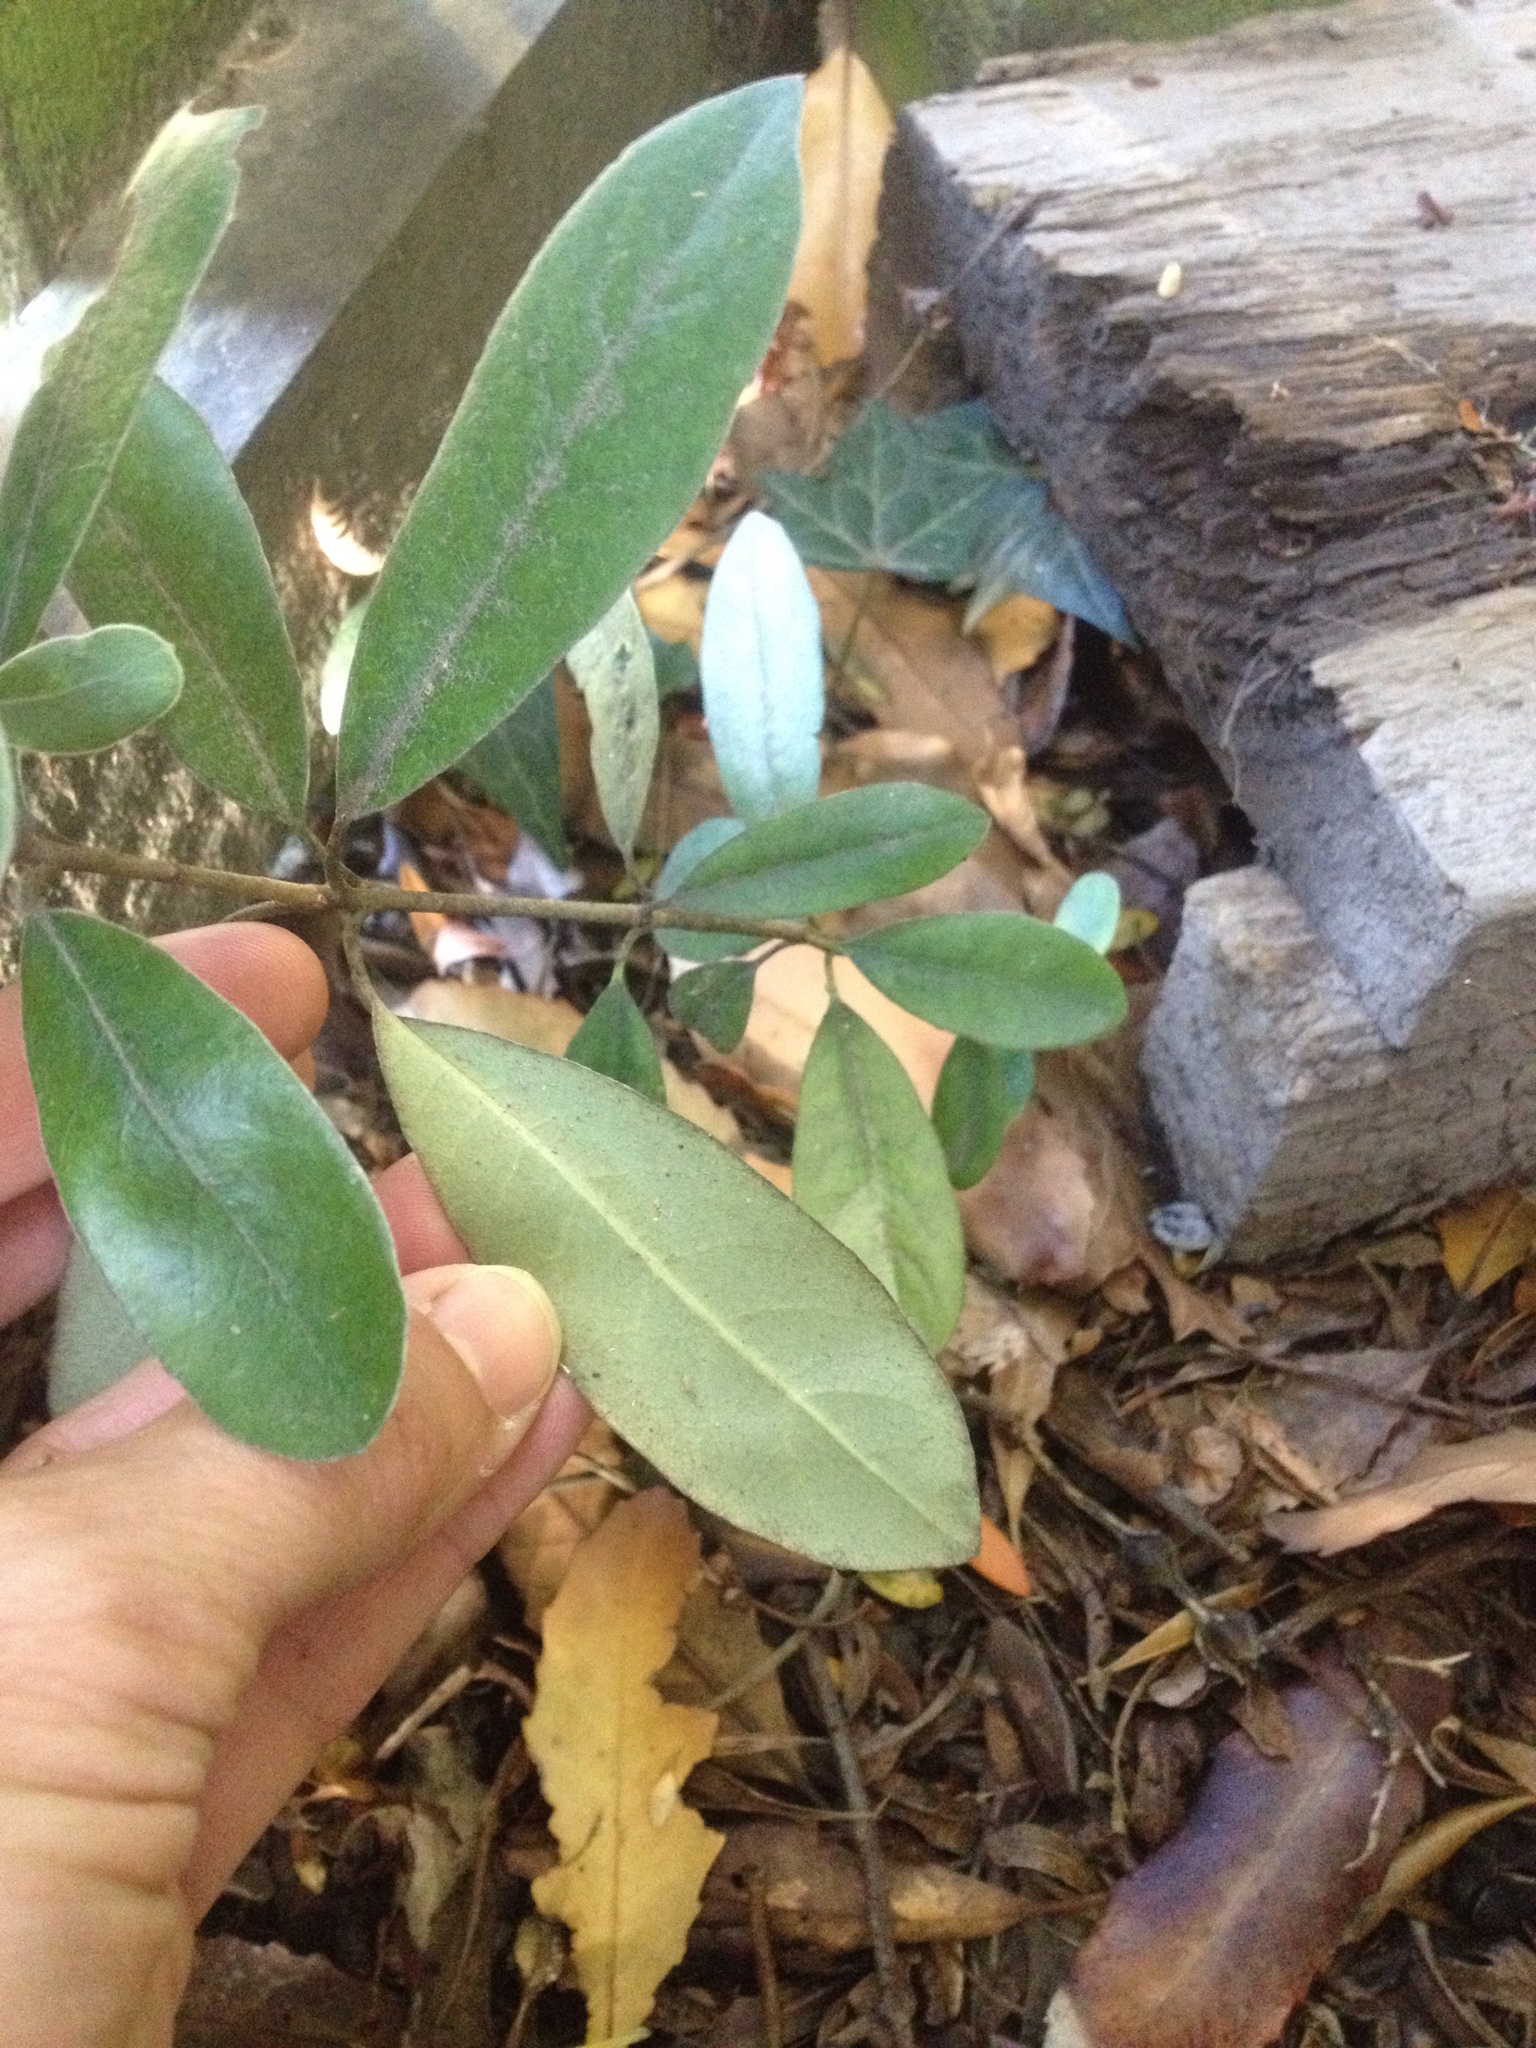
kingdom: Plantae
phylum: Tracheophyta
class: Magnoliopsida
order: Apiales
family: Pittosporaceae
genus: Pittosporum
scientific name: Pittosporum ralphii
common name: Ralph's desertwillow
